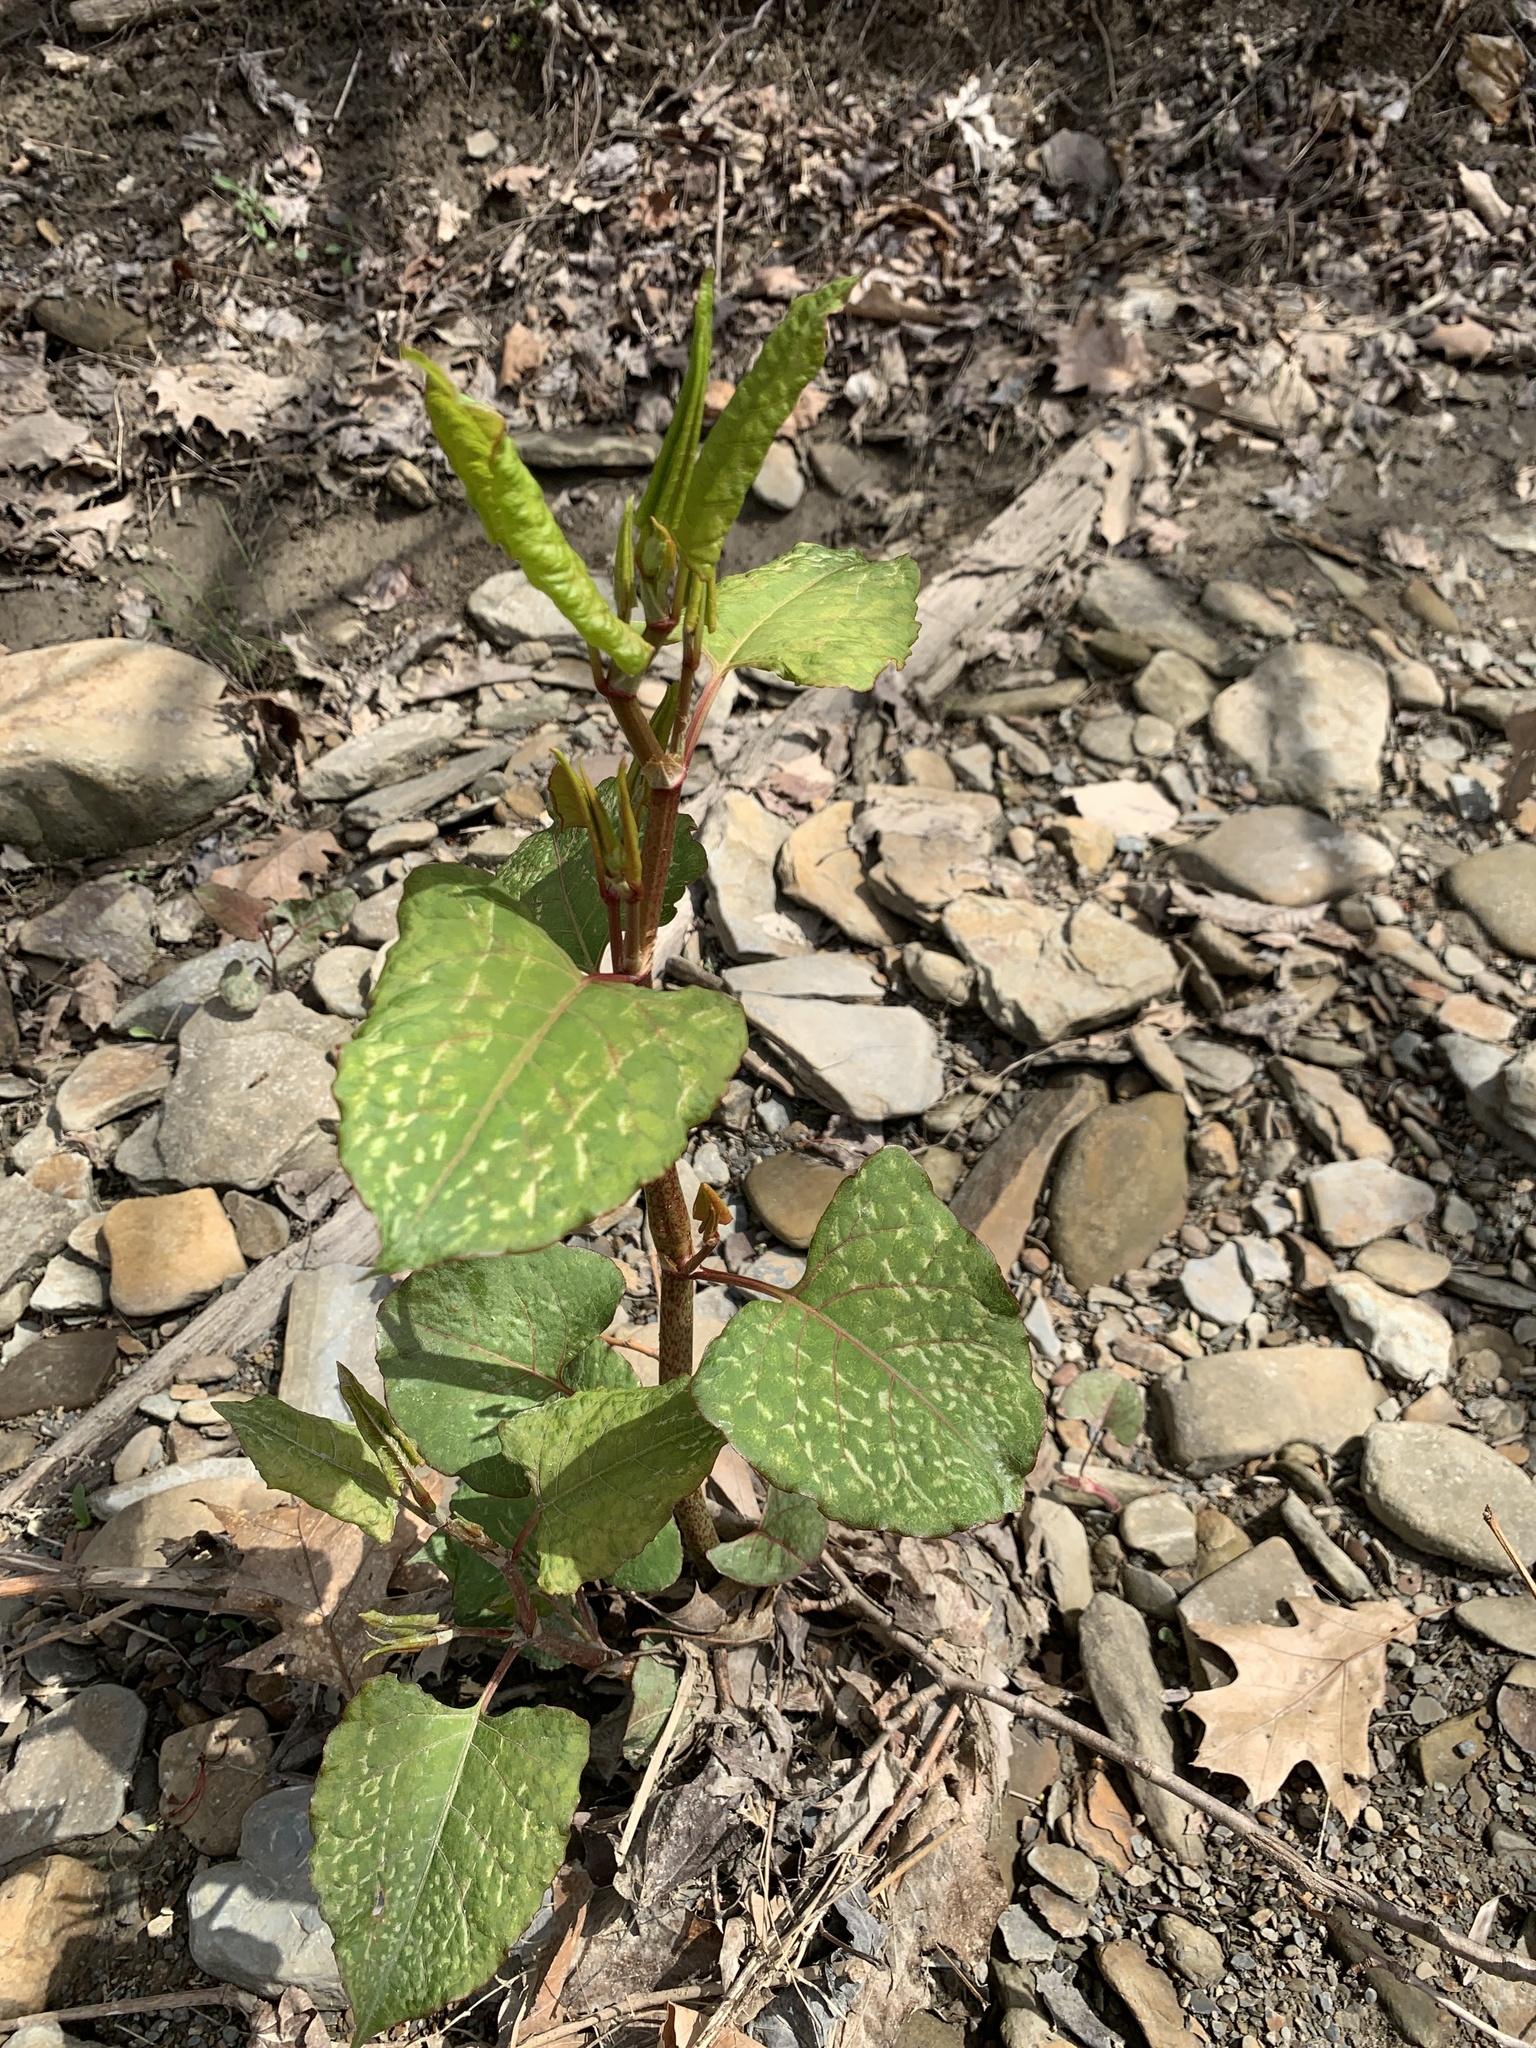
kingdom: Plantae
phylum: Tracheophyta
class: Magnoliopsida
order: Caryophyllales
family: Polygonaceae
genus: Reynoutria
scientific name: Reynoutria japonica
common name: Japanese knotweed
